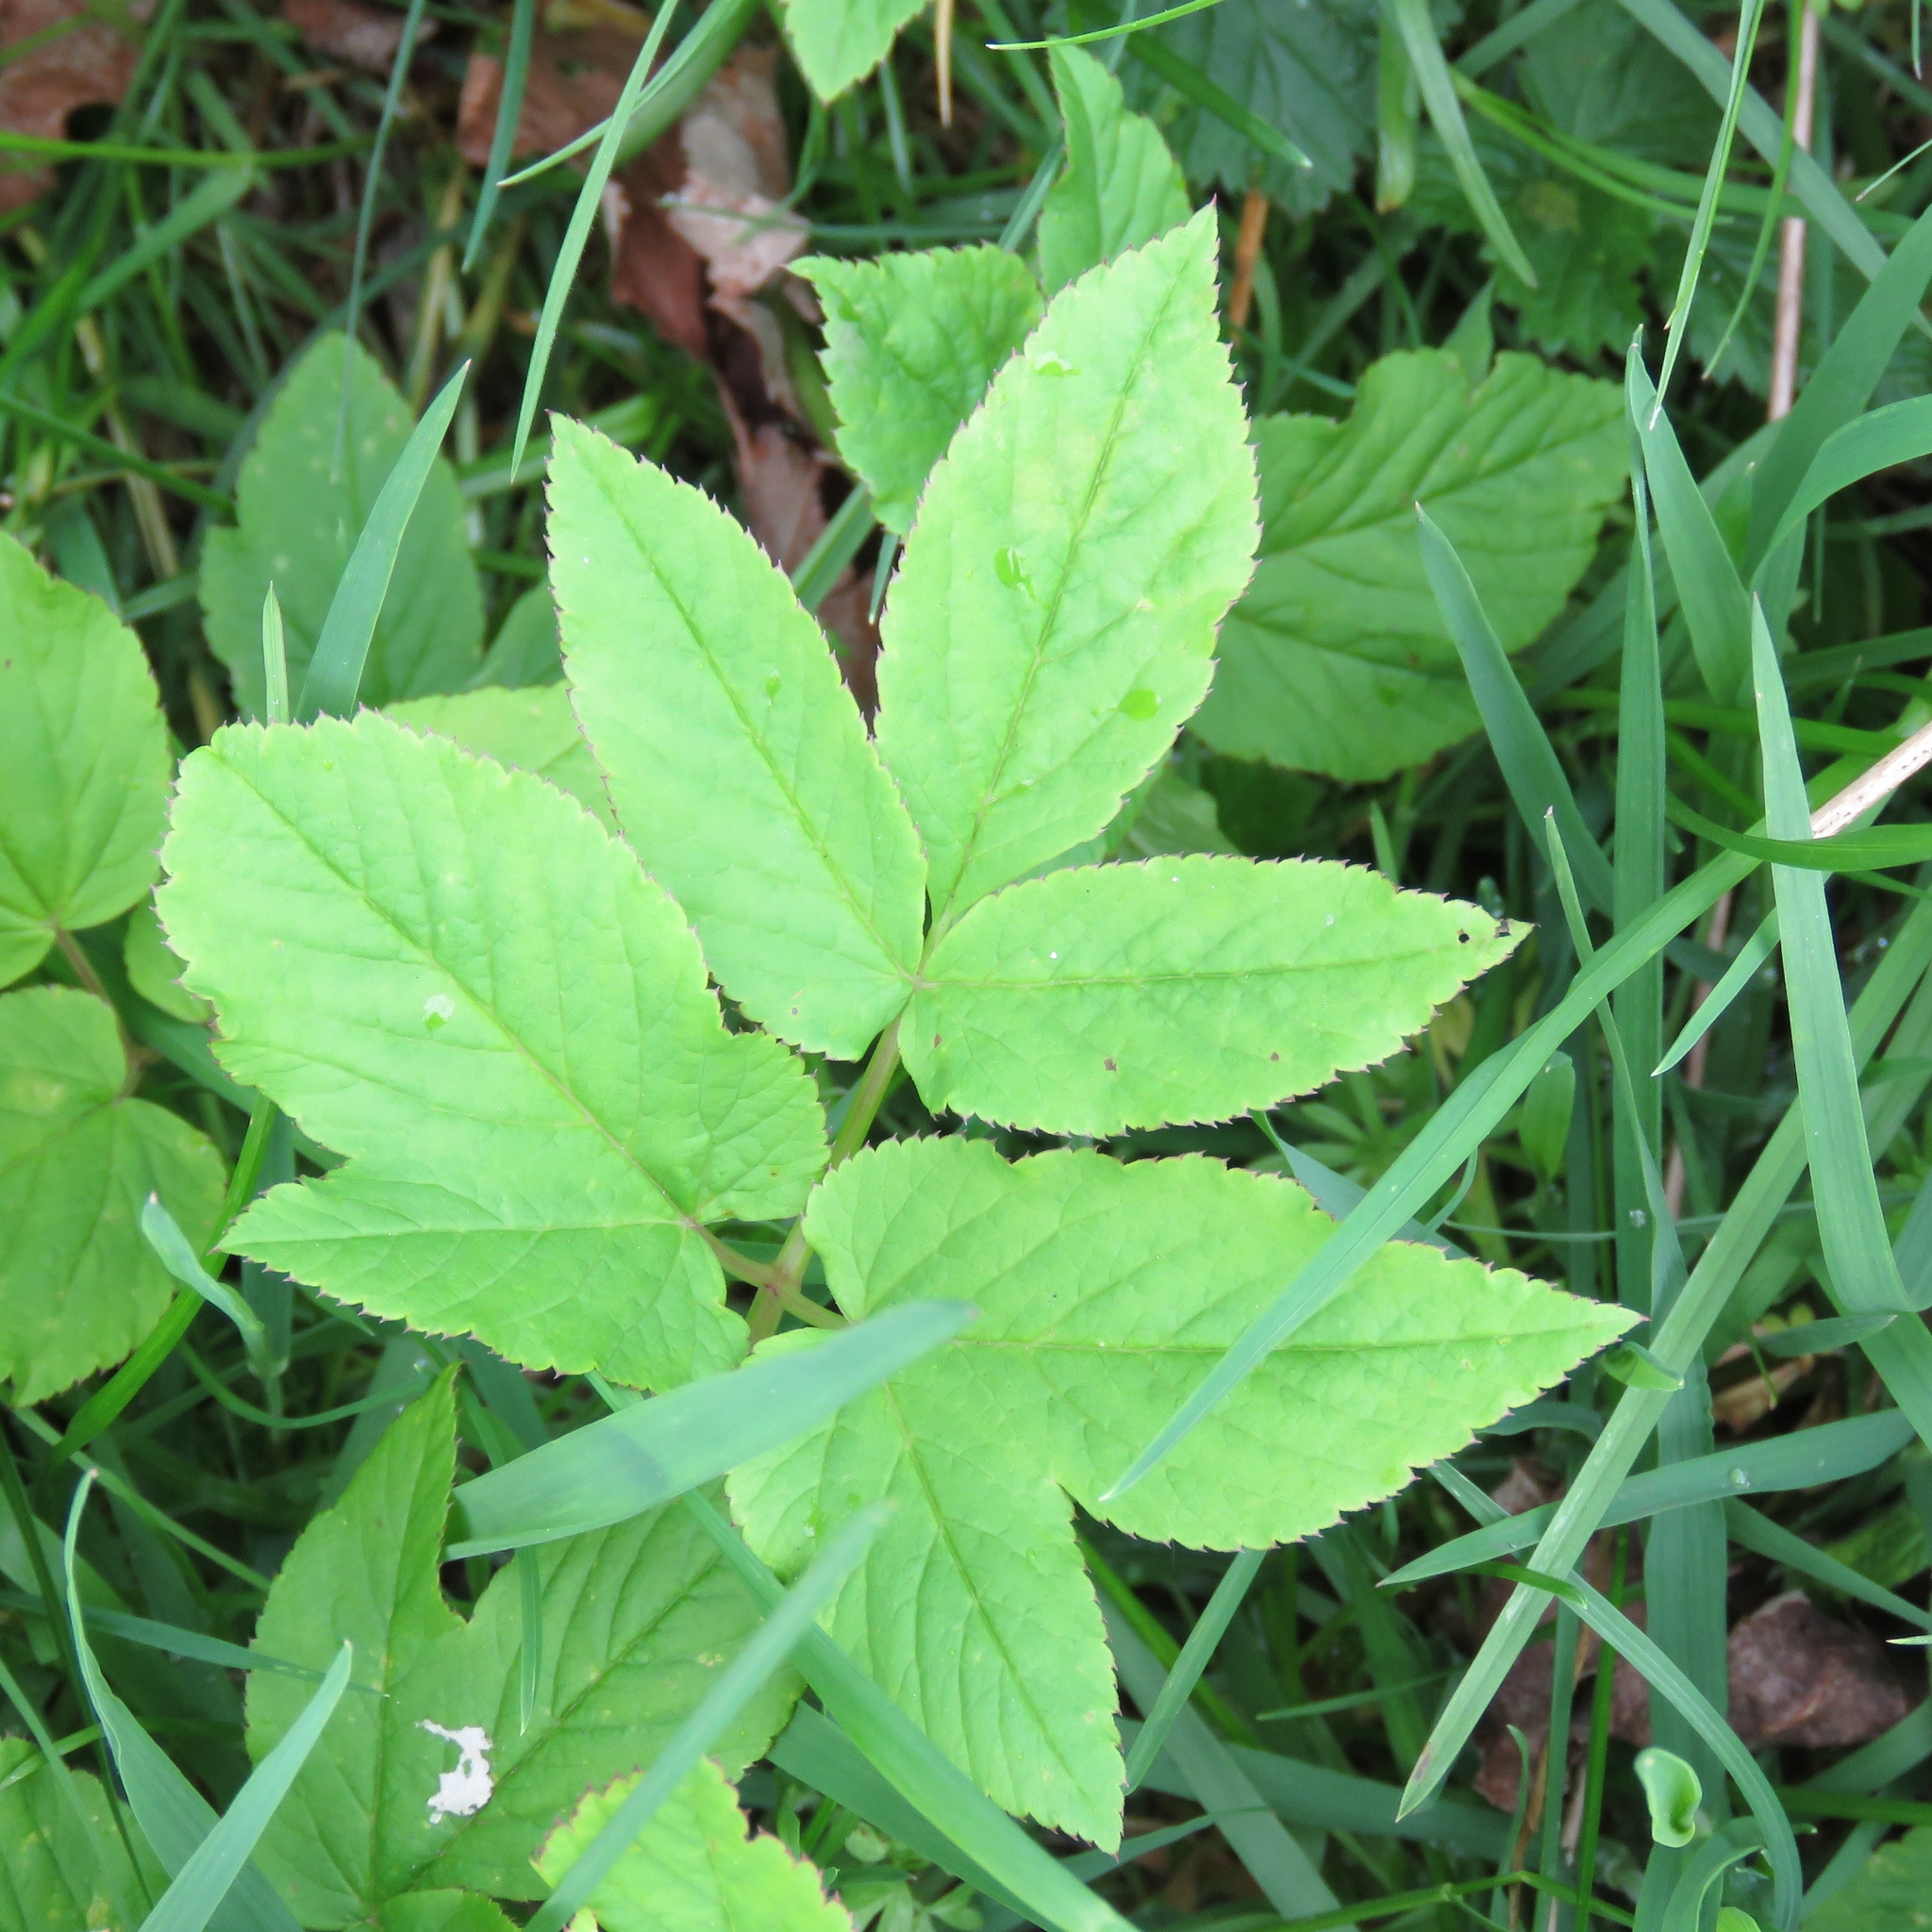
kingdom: Plantae
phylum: Tracheophyta
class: Magnoliopsida
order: Apiales
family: Apiaceae
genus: Aegopodium
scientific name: Aegopodium podagraria
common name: Ground-elder
